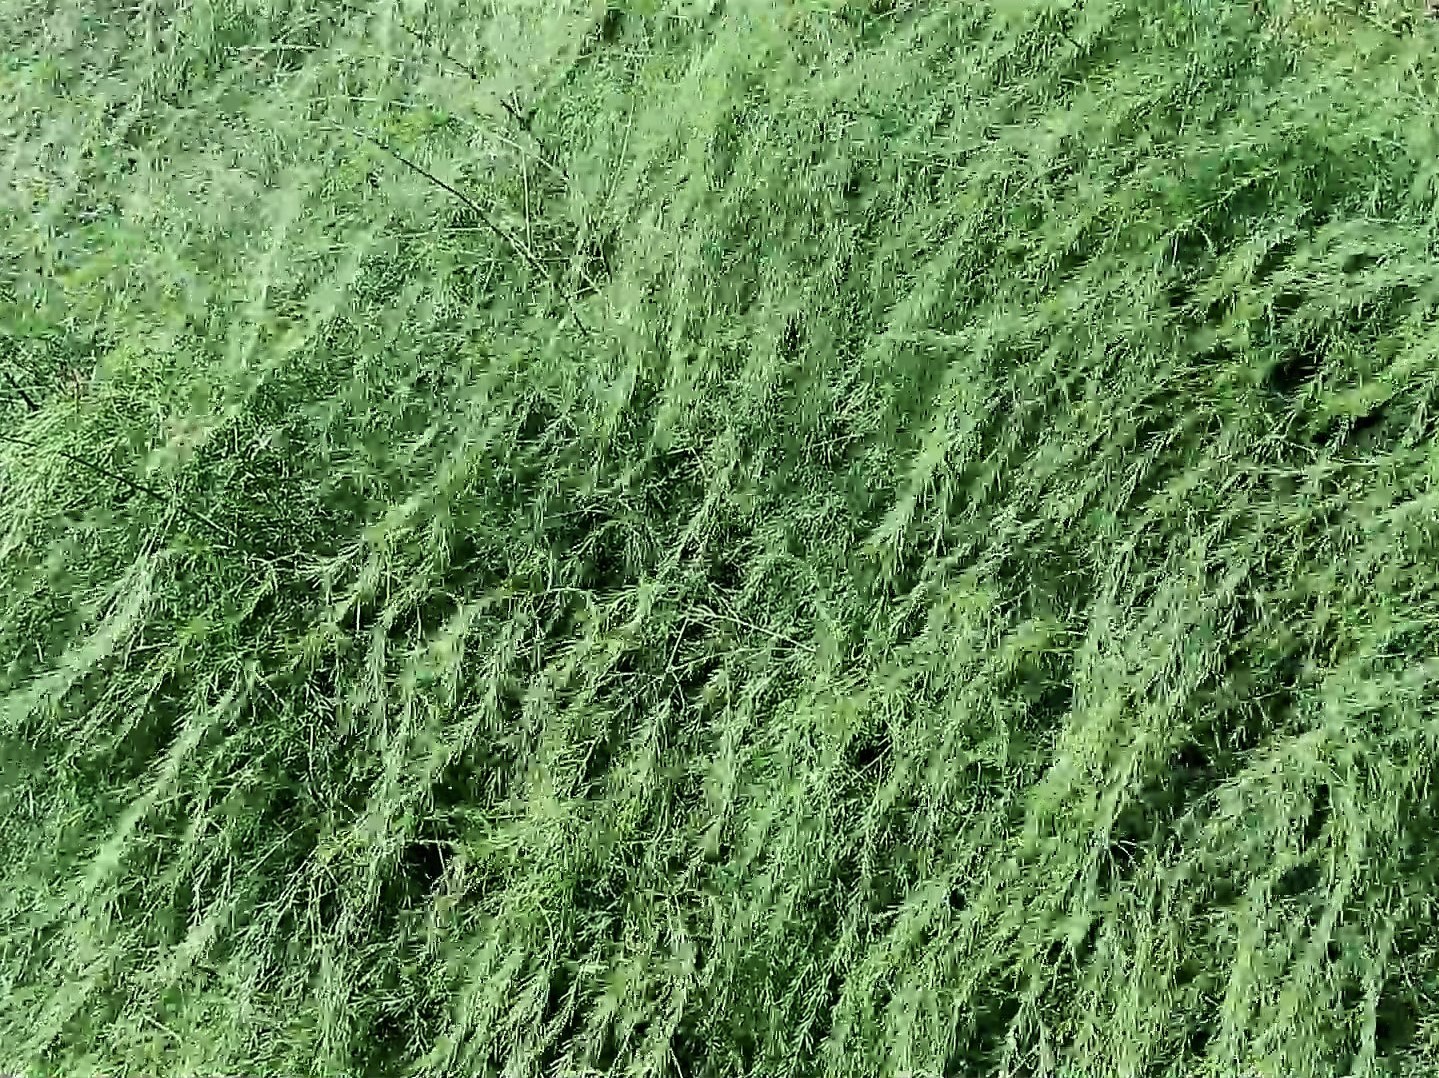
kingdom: Plantae
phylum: Tracheophyta
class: Liliopsida
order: Asparagales
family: Asparagaceae
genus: Asparagus
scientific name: Asparagus officinalis
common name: Garden asparagus
